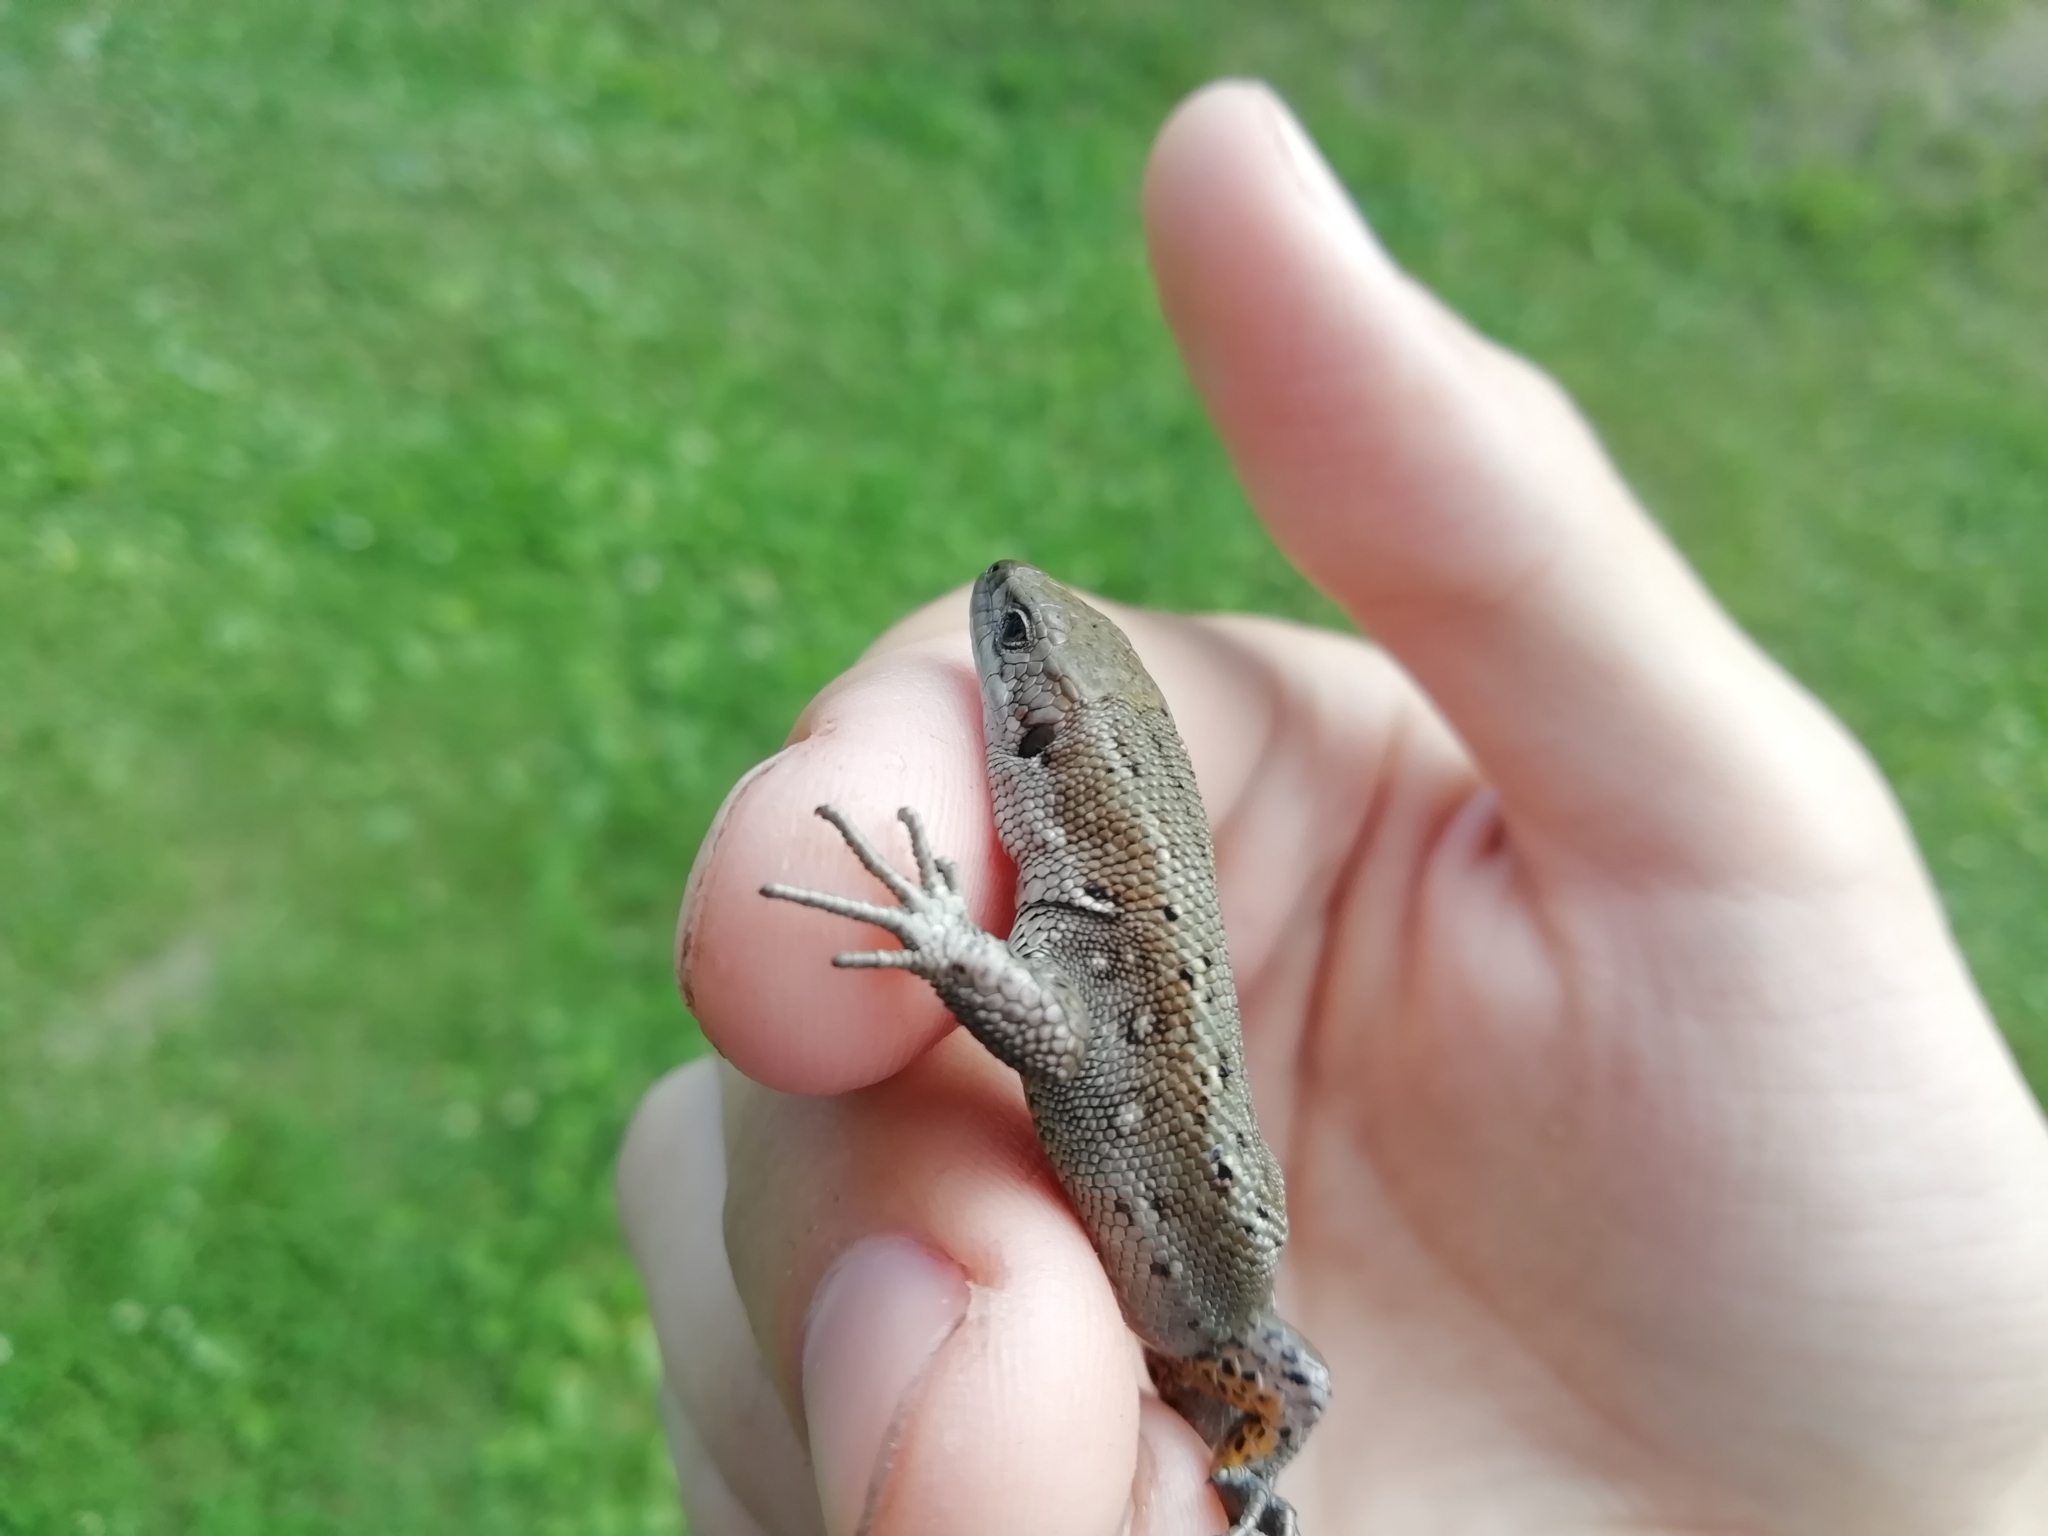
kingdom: Animalia
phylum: Chordata
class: Squamata
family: Lacertidae
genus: Zootoca
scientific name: Zootoca vivipara
